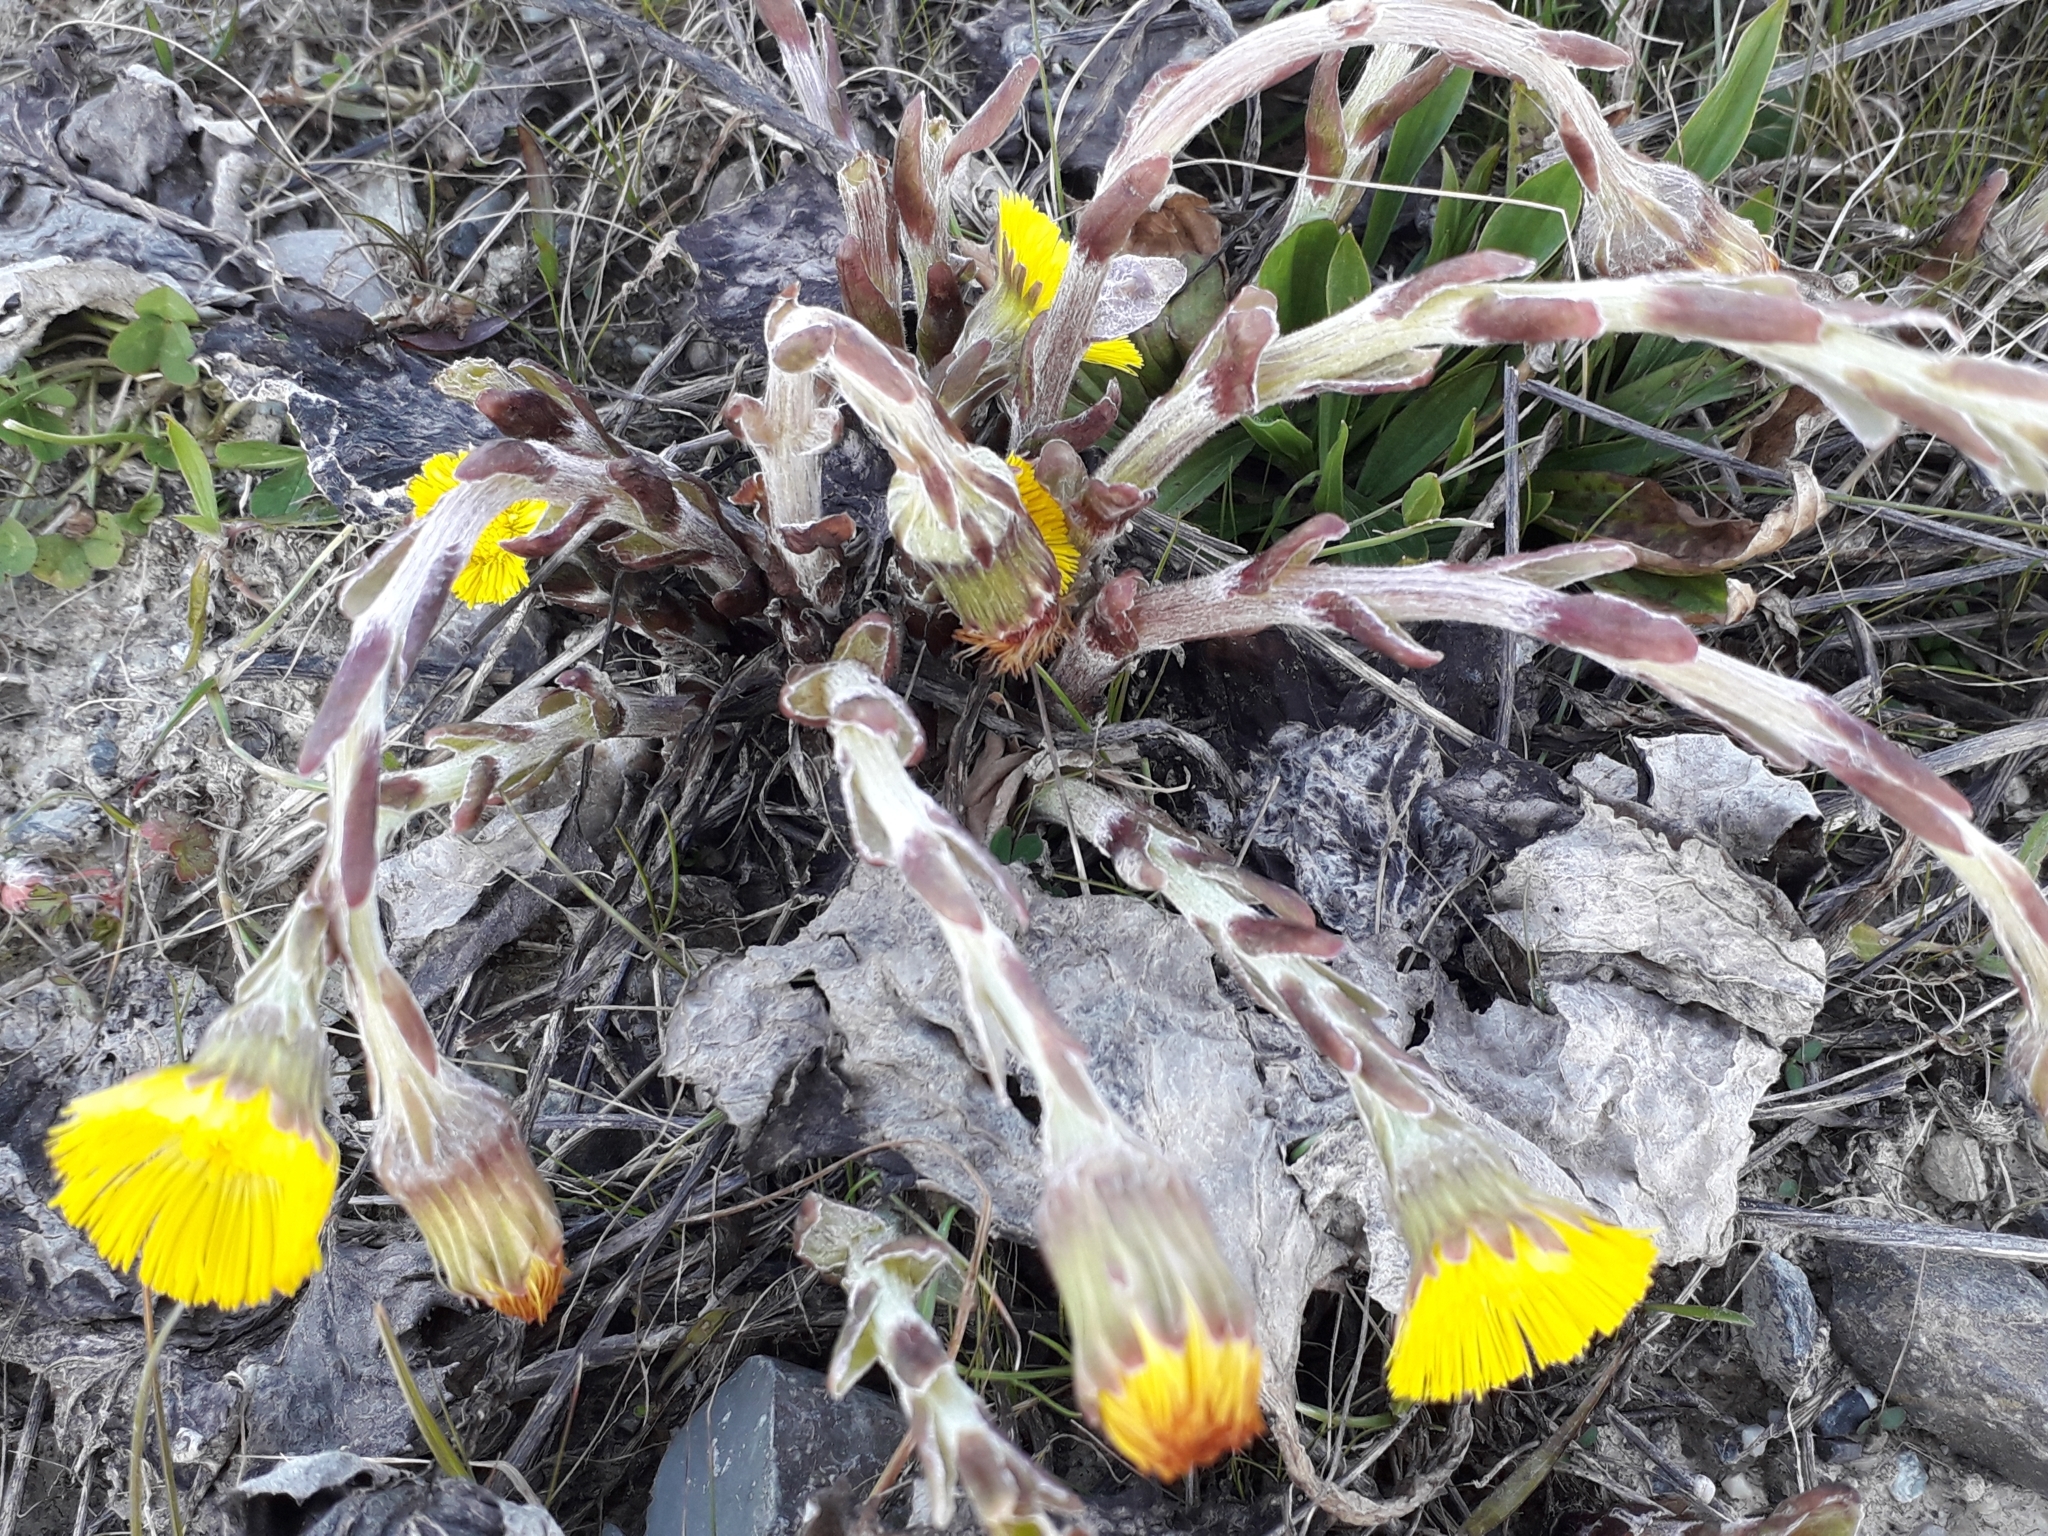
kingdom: Plantae
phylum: Tracheophyta
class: Magnoliopsida
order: Asterales
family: Asteraceae
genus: Tussilago
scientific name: Tussilago farfara
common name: Coltsfoot
